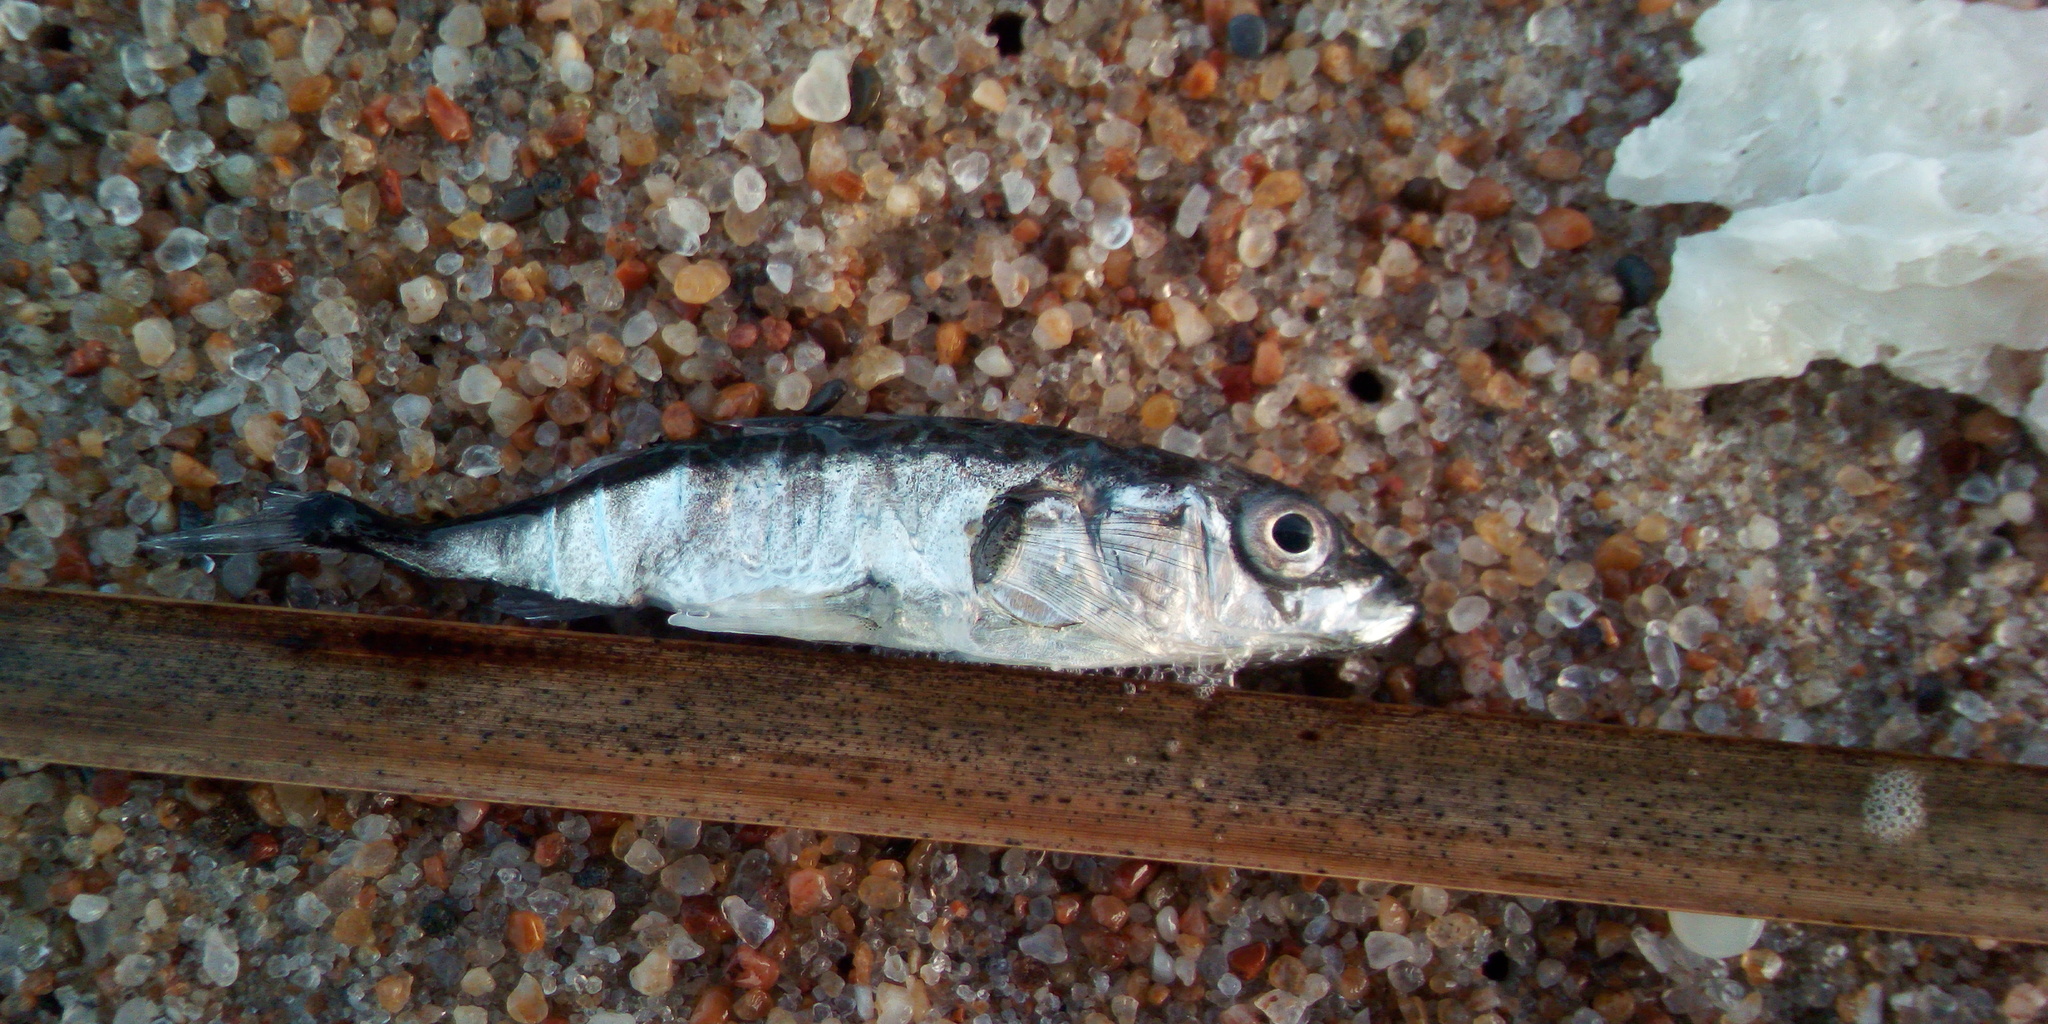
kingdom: Animalia
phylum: Chordata
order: Gasterosteiformes
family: Gasterosteidae
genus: Gasterosteus
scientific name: Gasterosteus aculeatus
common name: Three-spined stickleback
